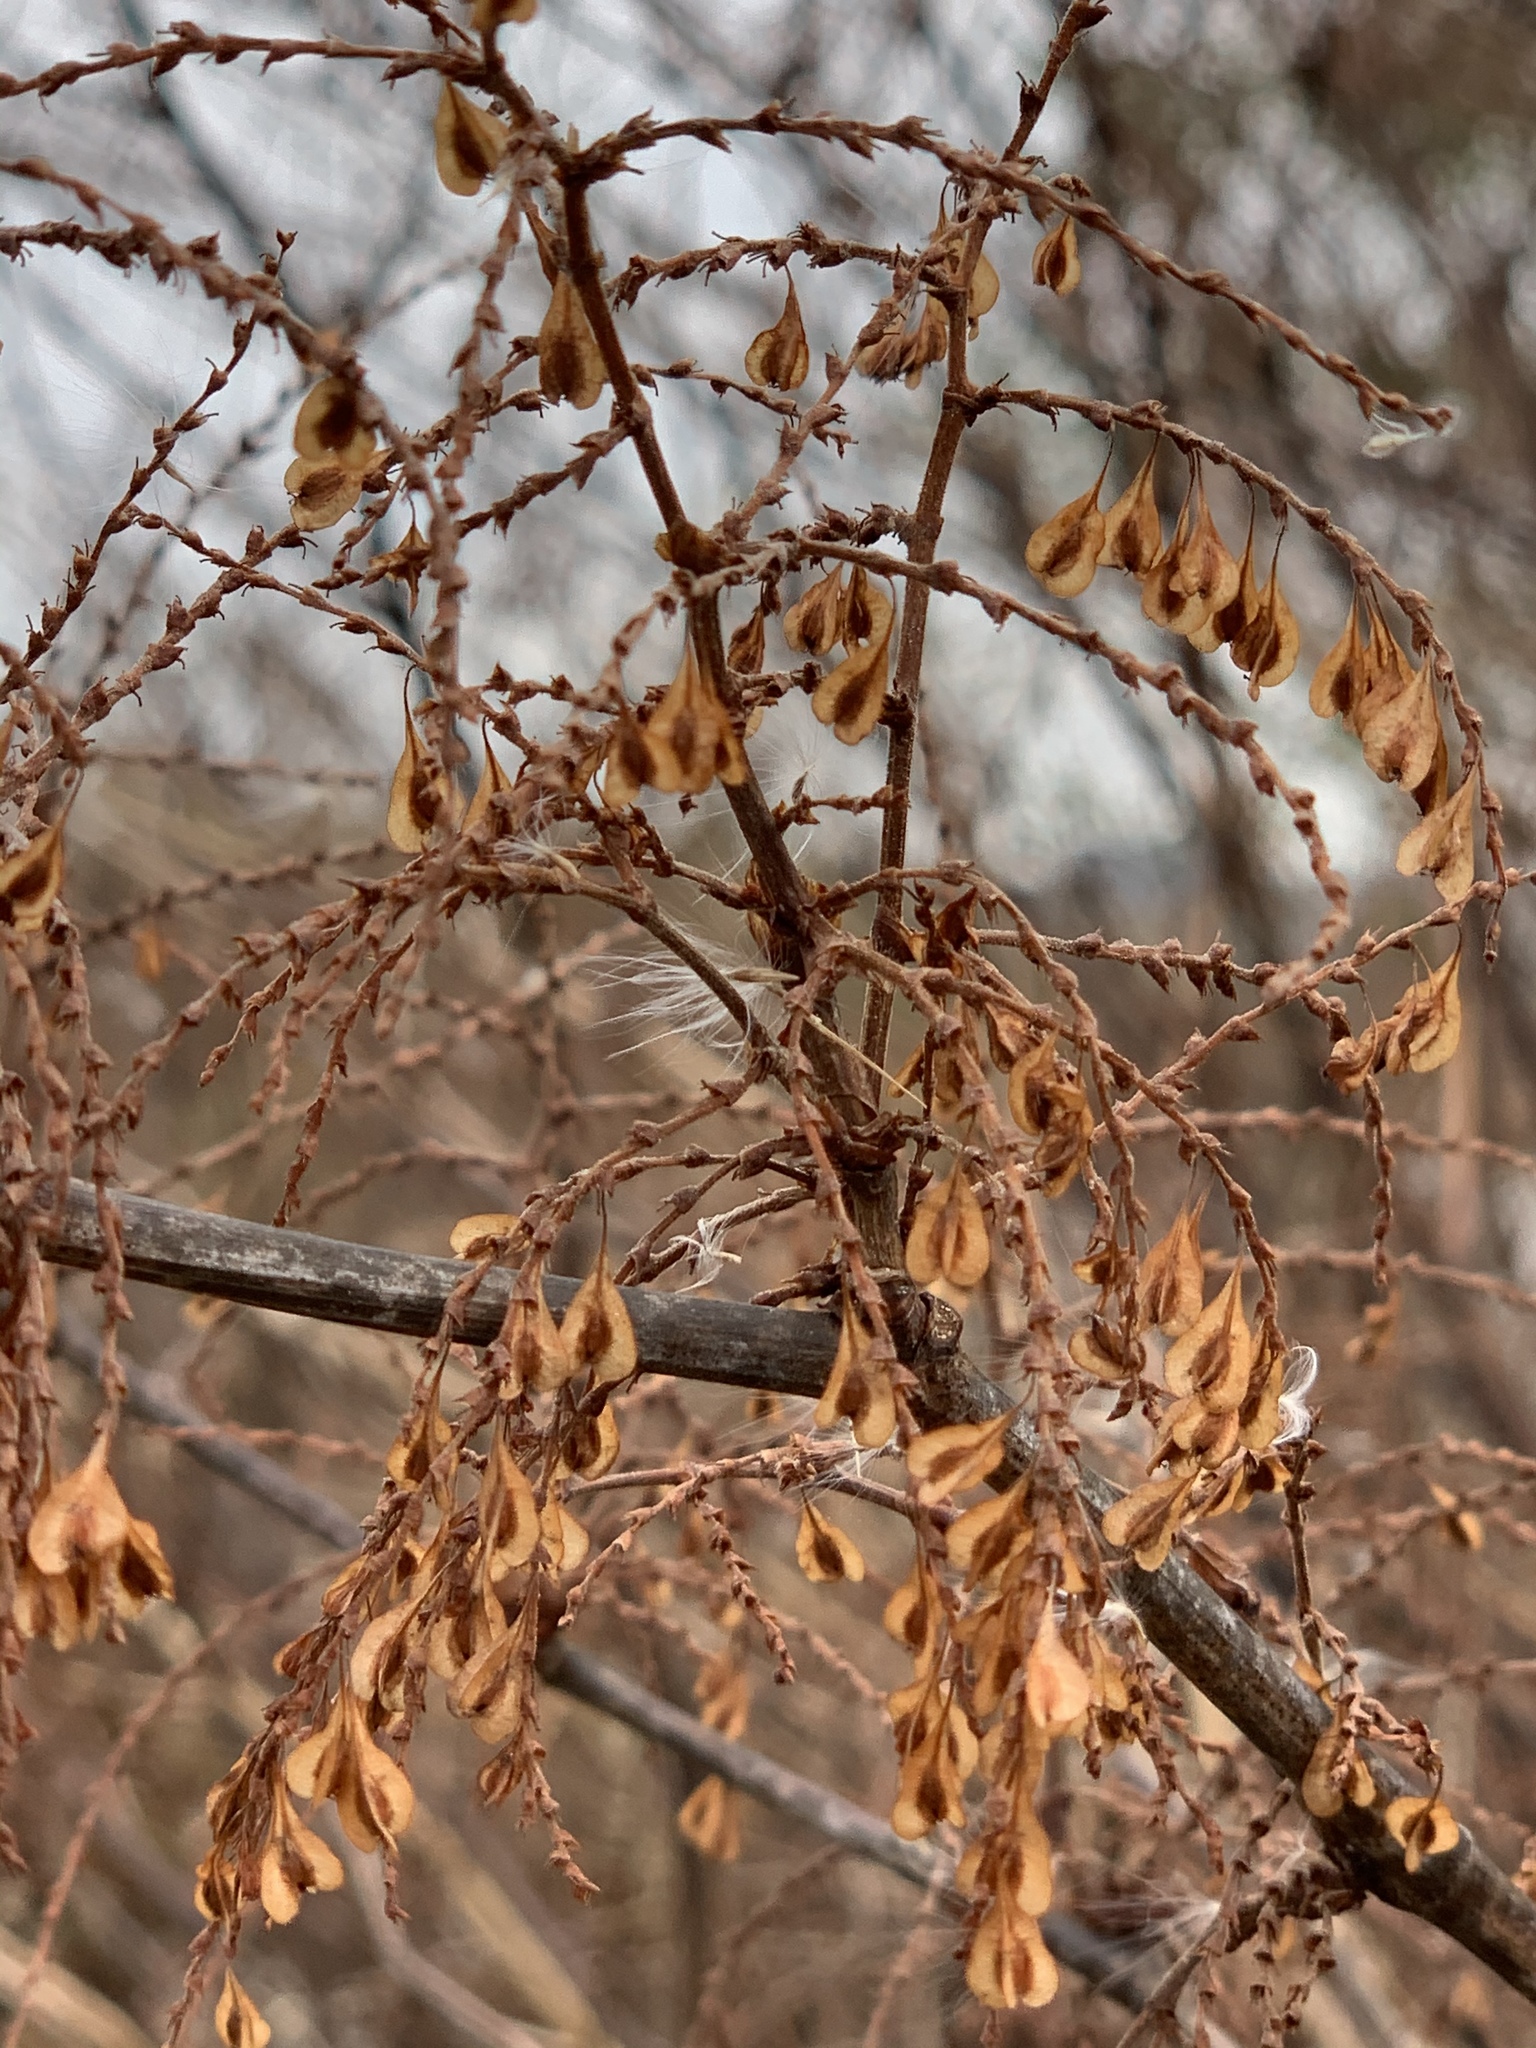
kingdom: Plantae
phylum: Tracheophyta
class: Magnoliopsida
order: Caryophyllales
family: Polygonaceae
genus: Reynoutria
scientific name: Reynoutria japonica
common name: Japanese knotweed
